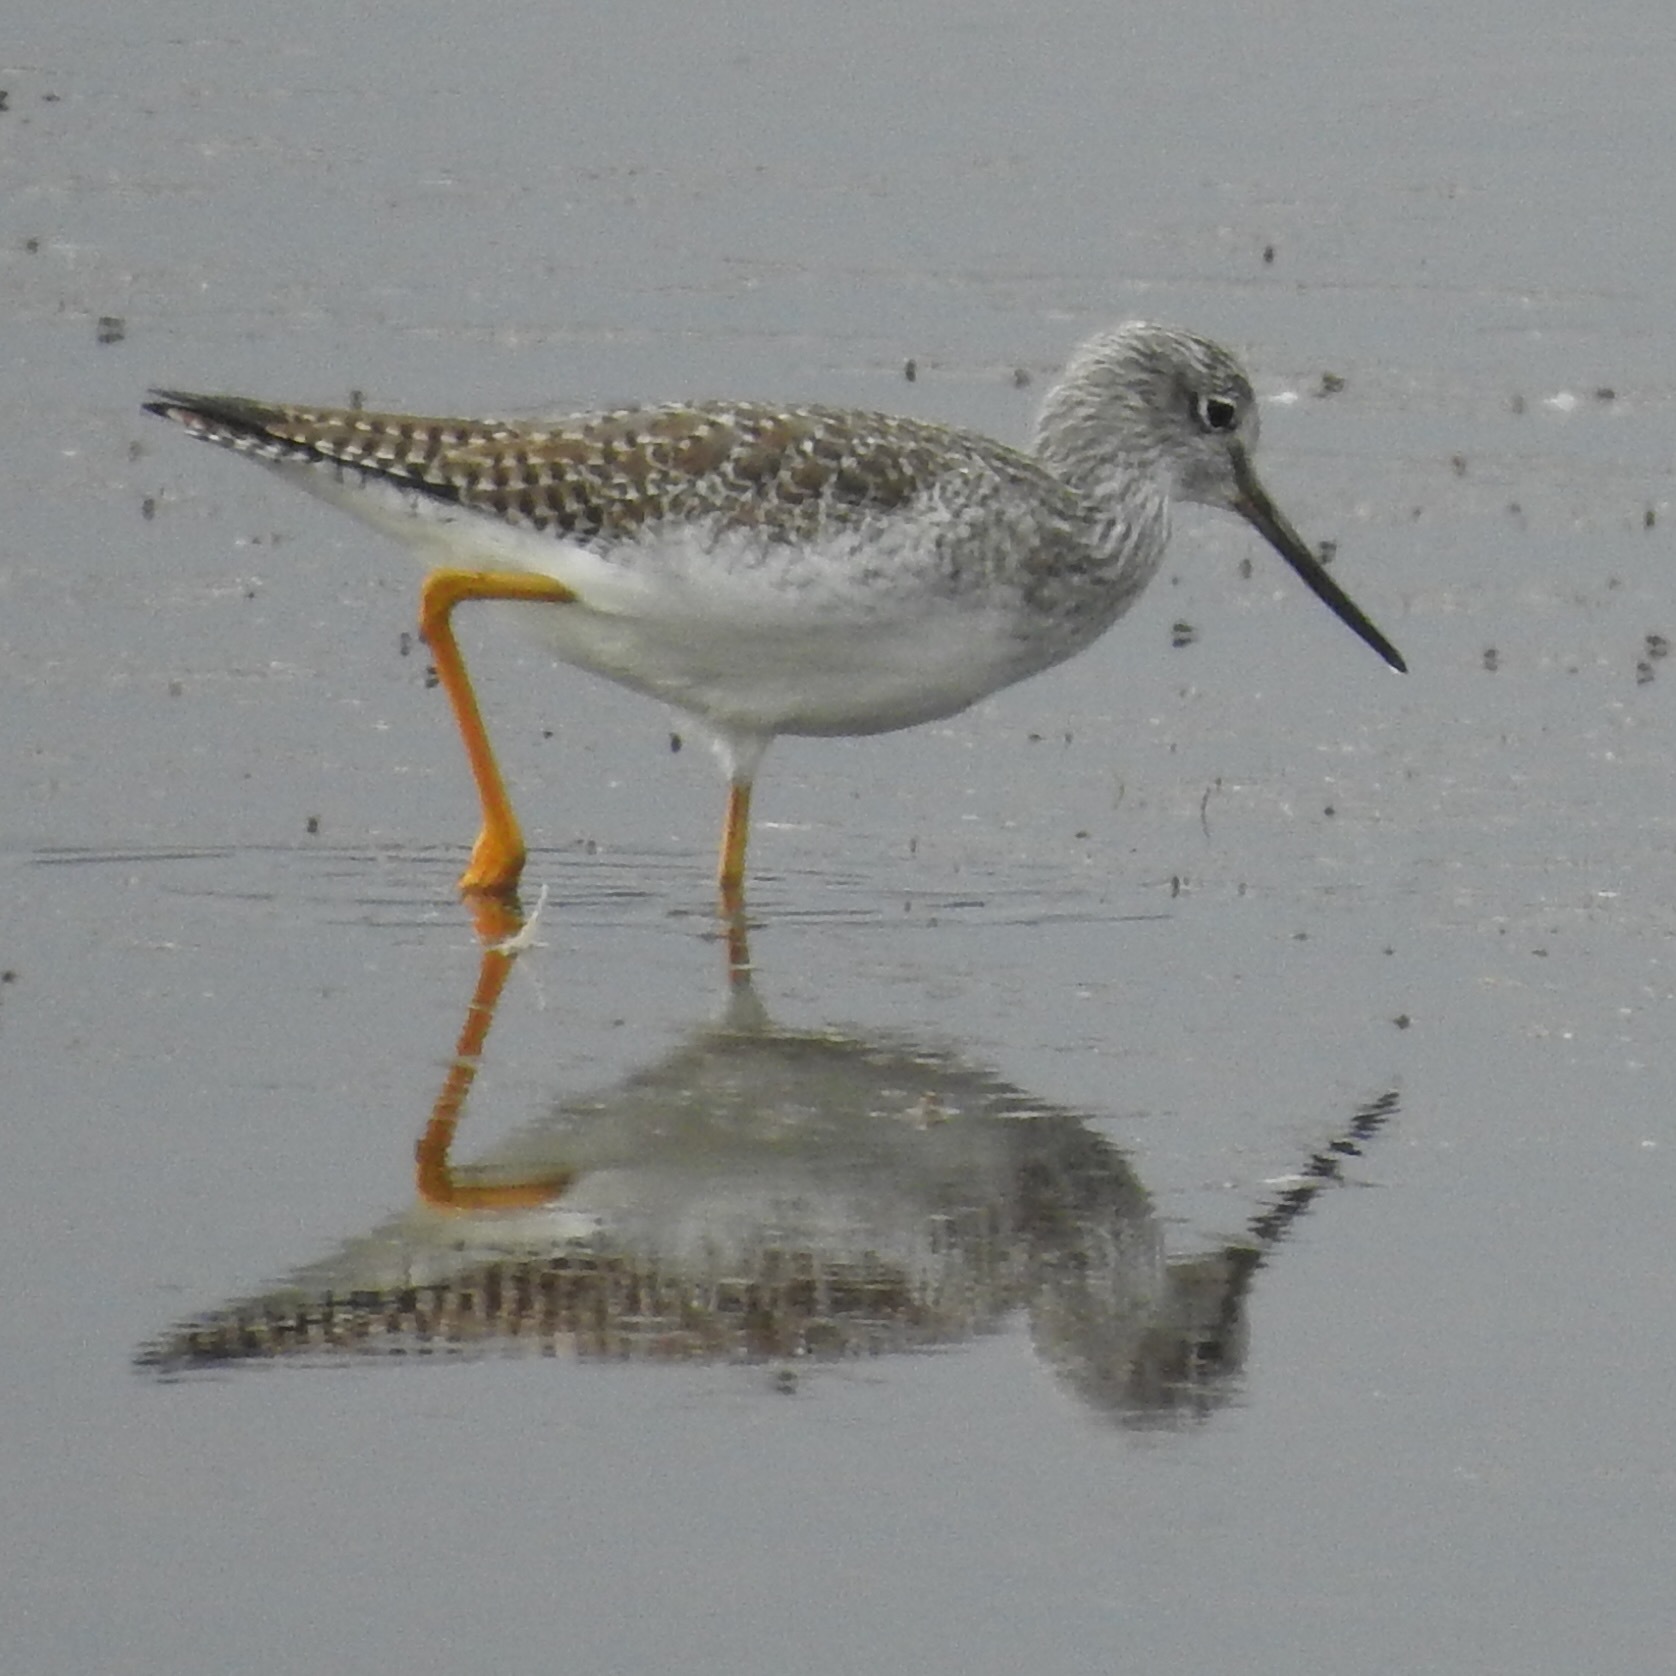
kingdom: Animalia
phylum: Chordata
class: Aves
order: Charadriiformes
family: Scolopacidae
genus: Tringa
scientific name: Tringa melanoleuca
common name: Greater yellowlegs
